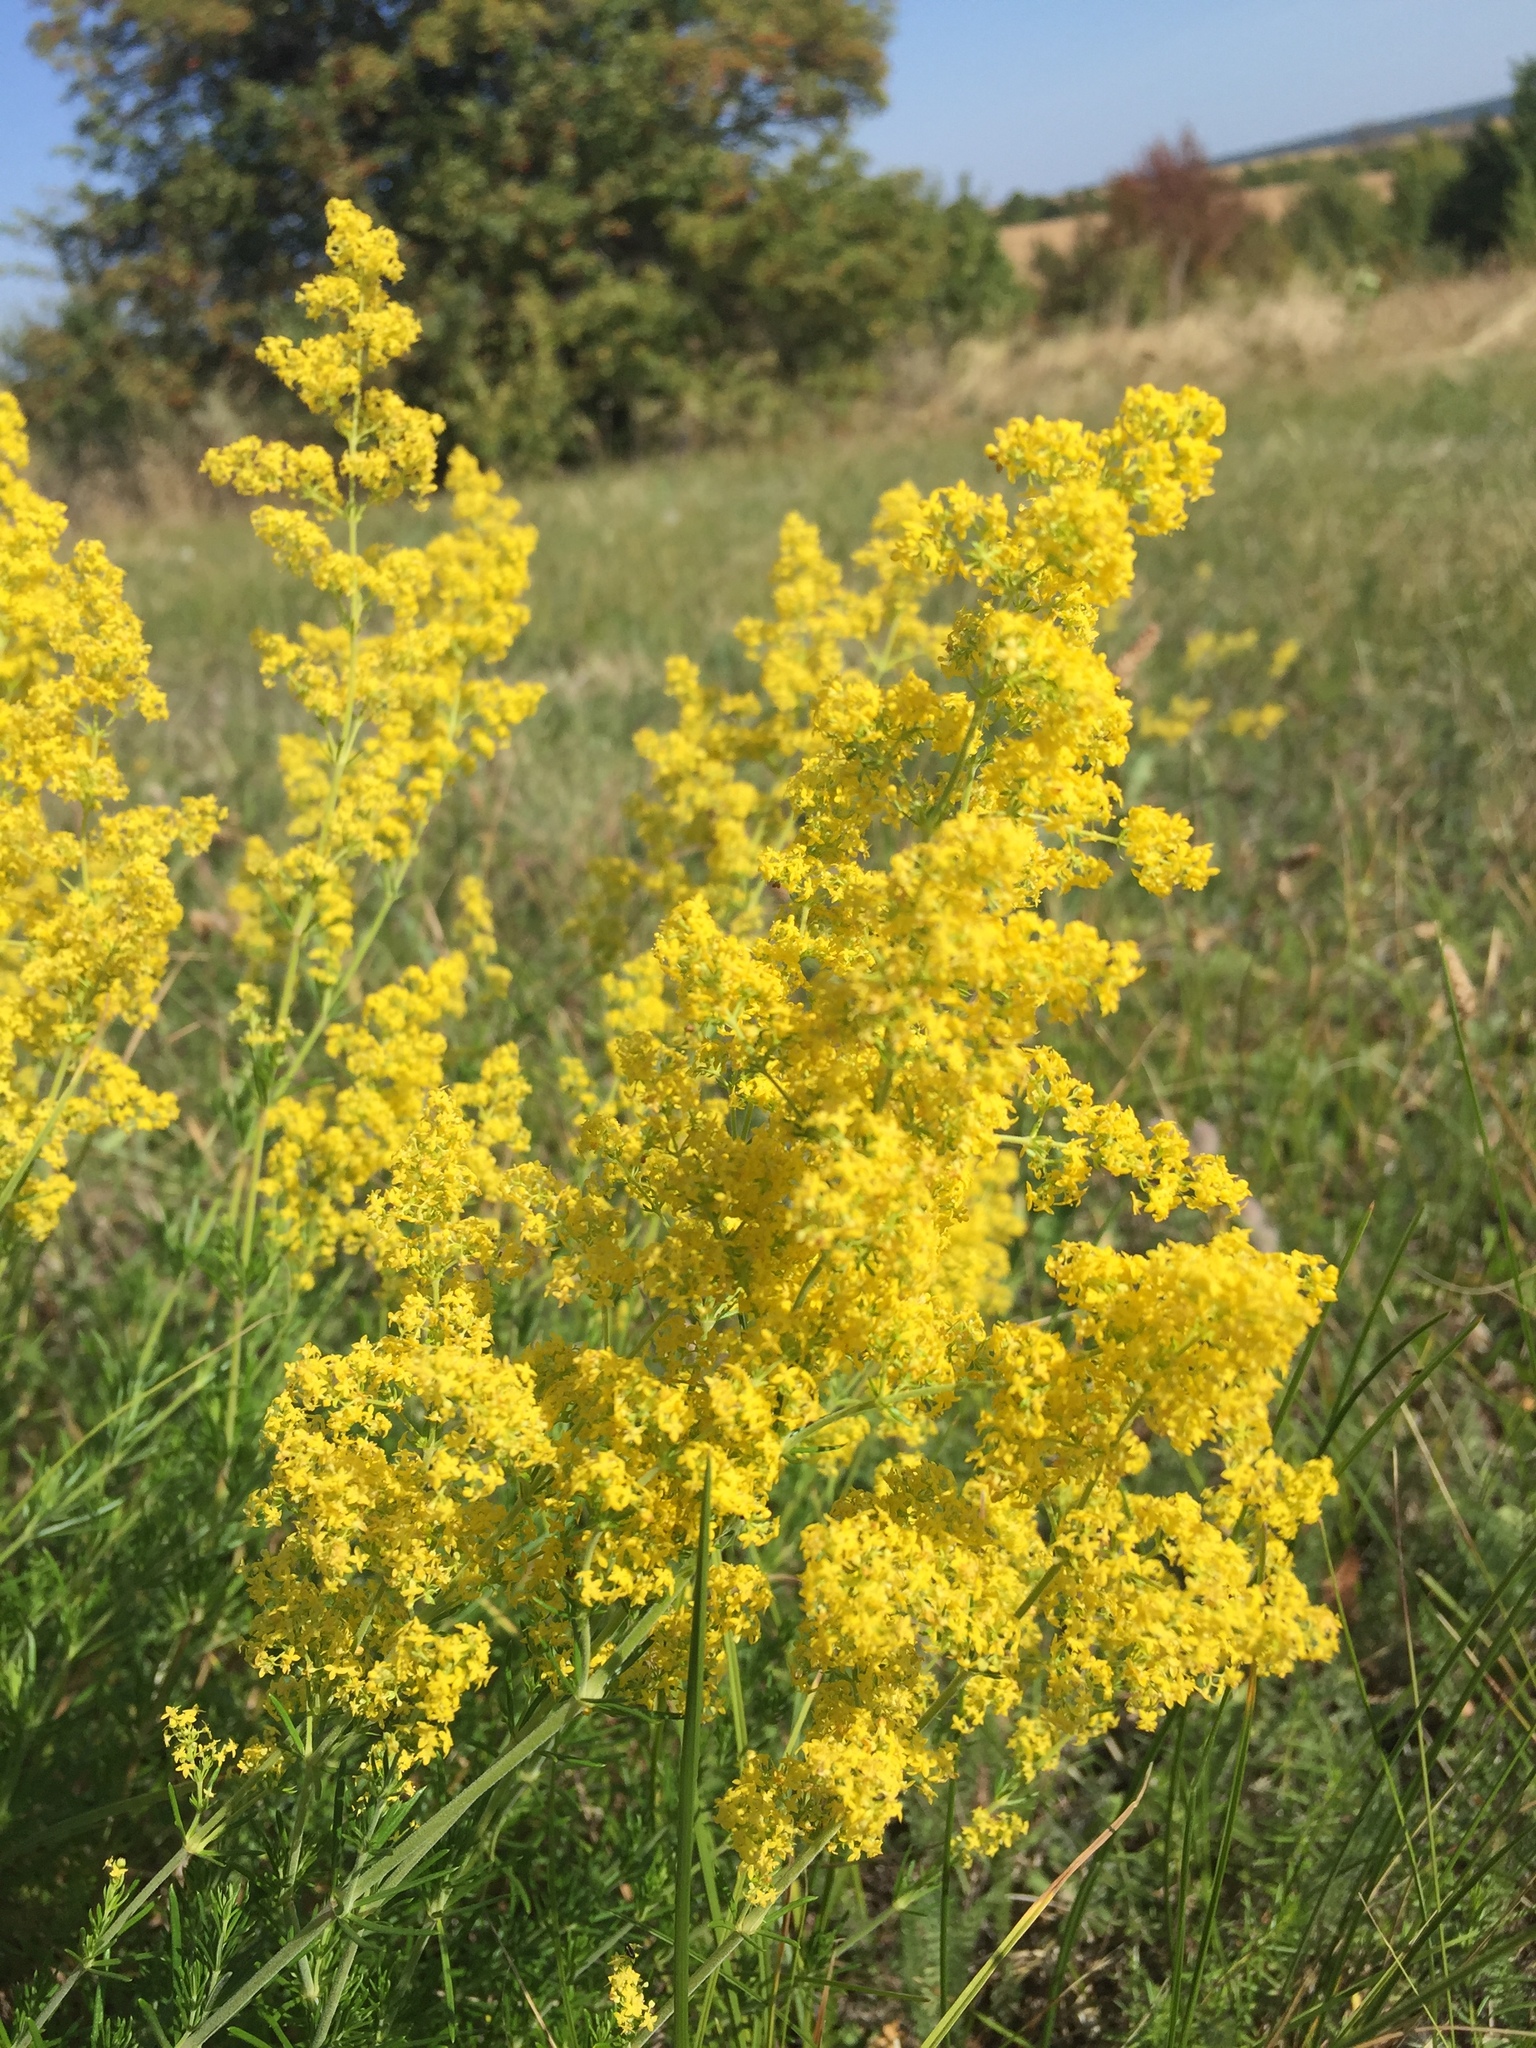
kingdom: Plantae
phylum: Tracheophyta
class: Magnoliopsida
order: Gentianales
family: Rubiaceae
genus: Galium
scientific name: Galium verum
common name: Lady's bedstraw
